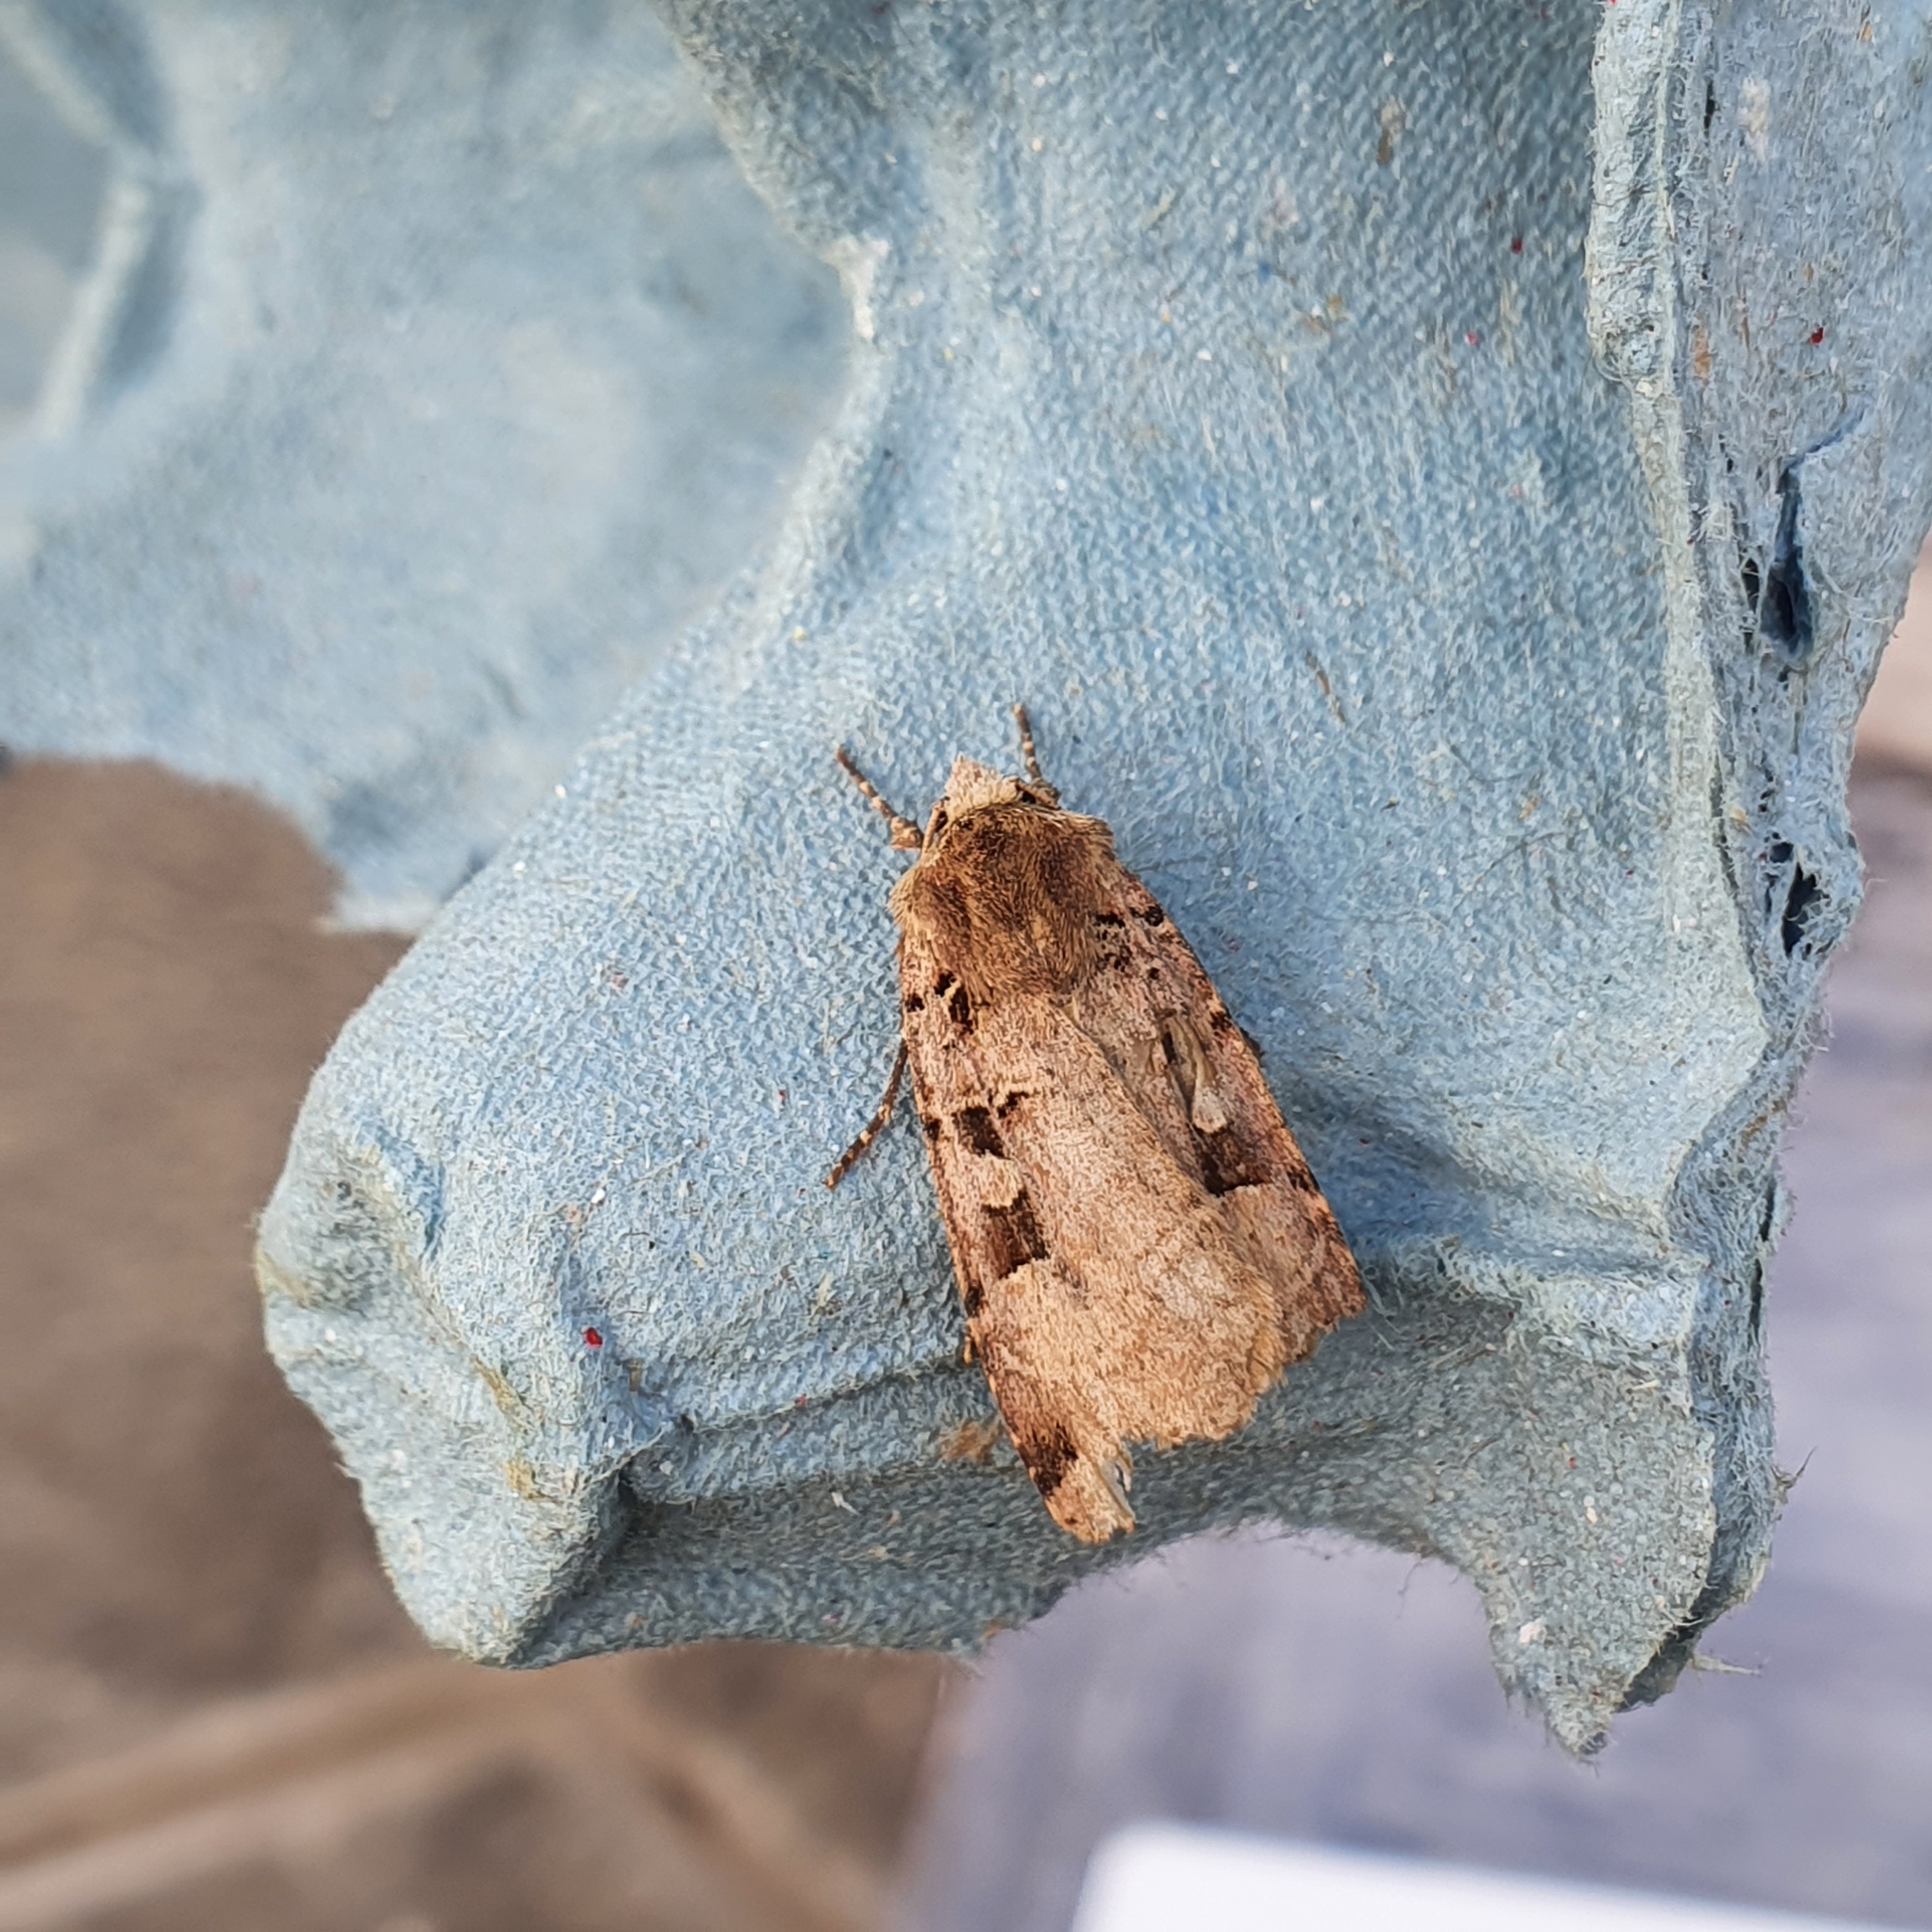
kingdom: Animalia
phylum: Arthropoda
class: Insecta
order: Lepidoptera
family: Noctuidae
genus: Xestia
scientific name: Xestia triangulum
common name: Double square-spot
